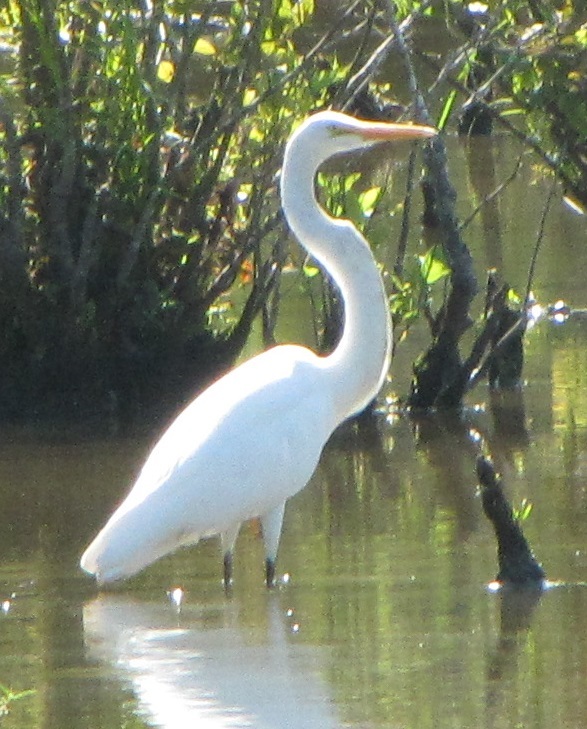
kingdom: Animalia
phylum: Chordata
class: Aves
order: Pelecaniformes
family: Ardeidae
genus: Ardea
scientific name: Ardea alba
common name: Great egret
